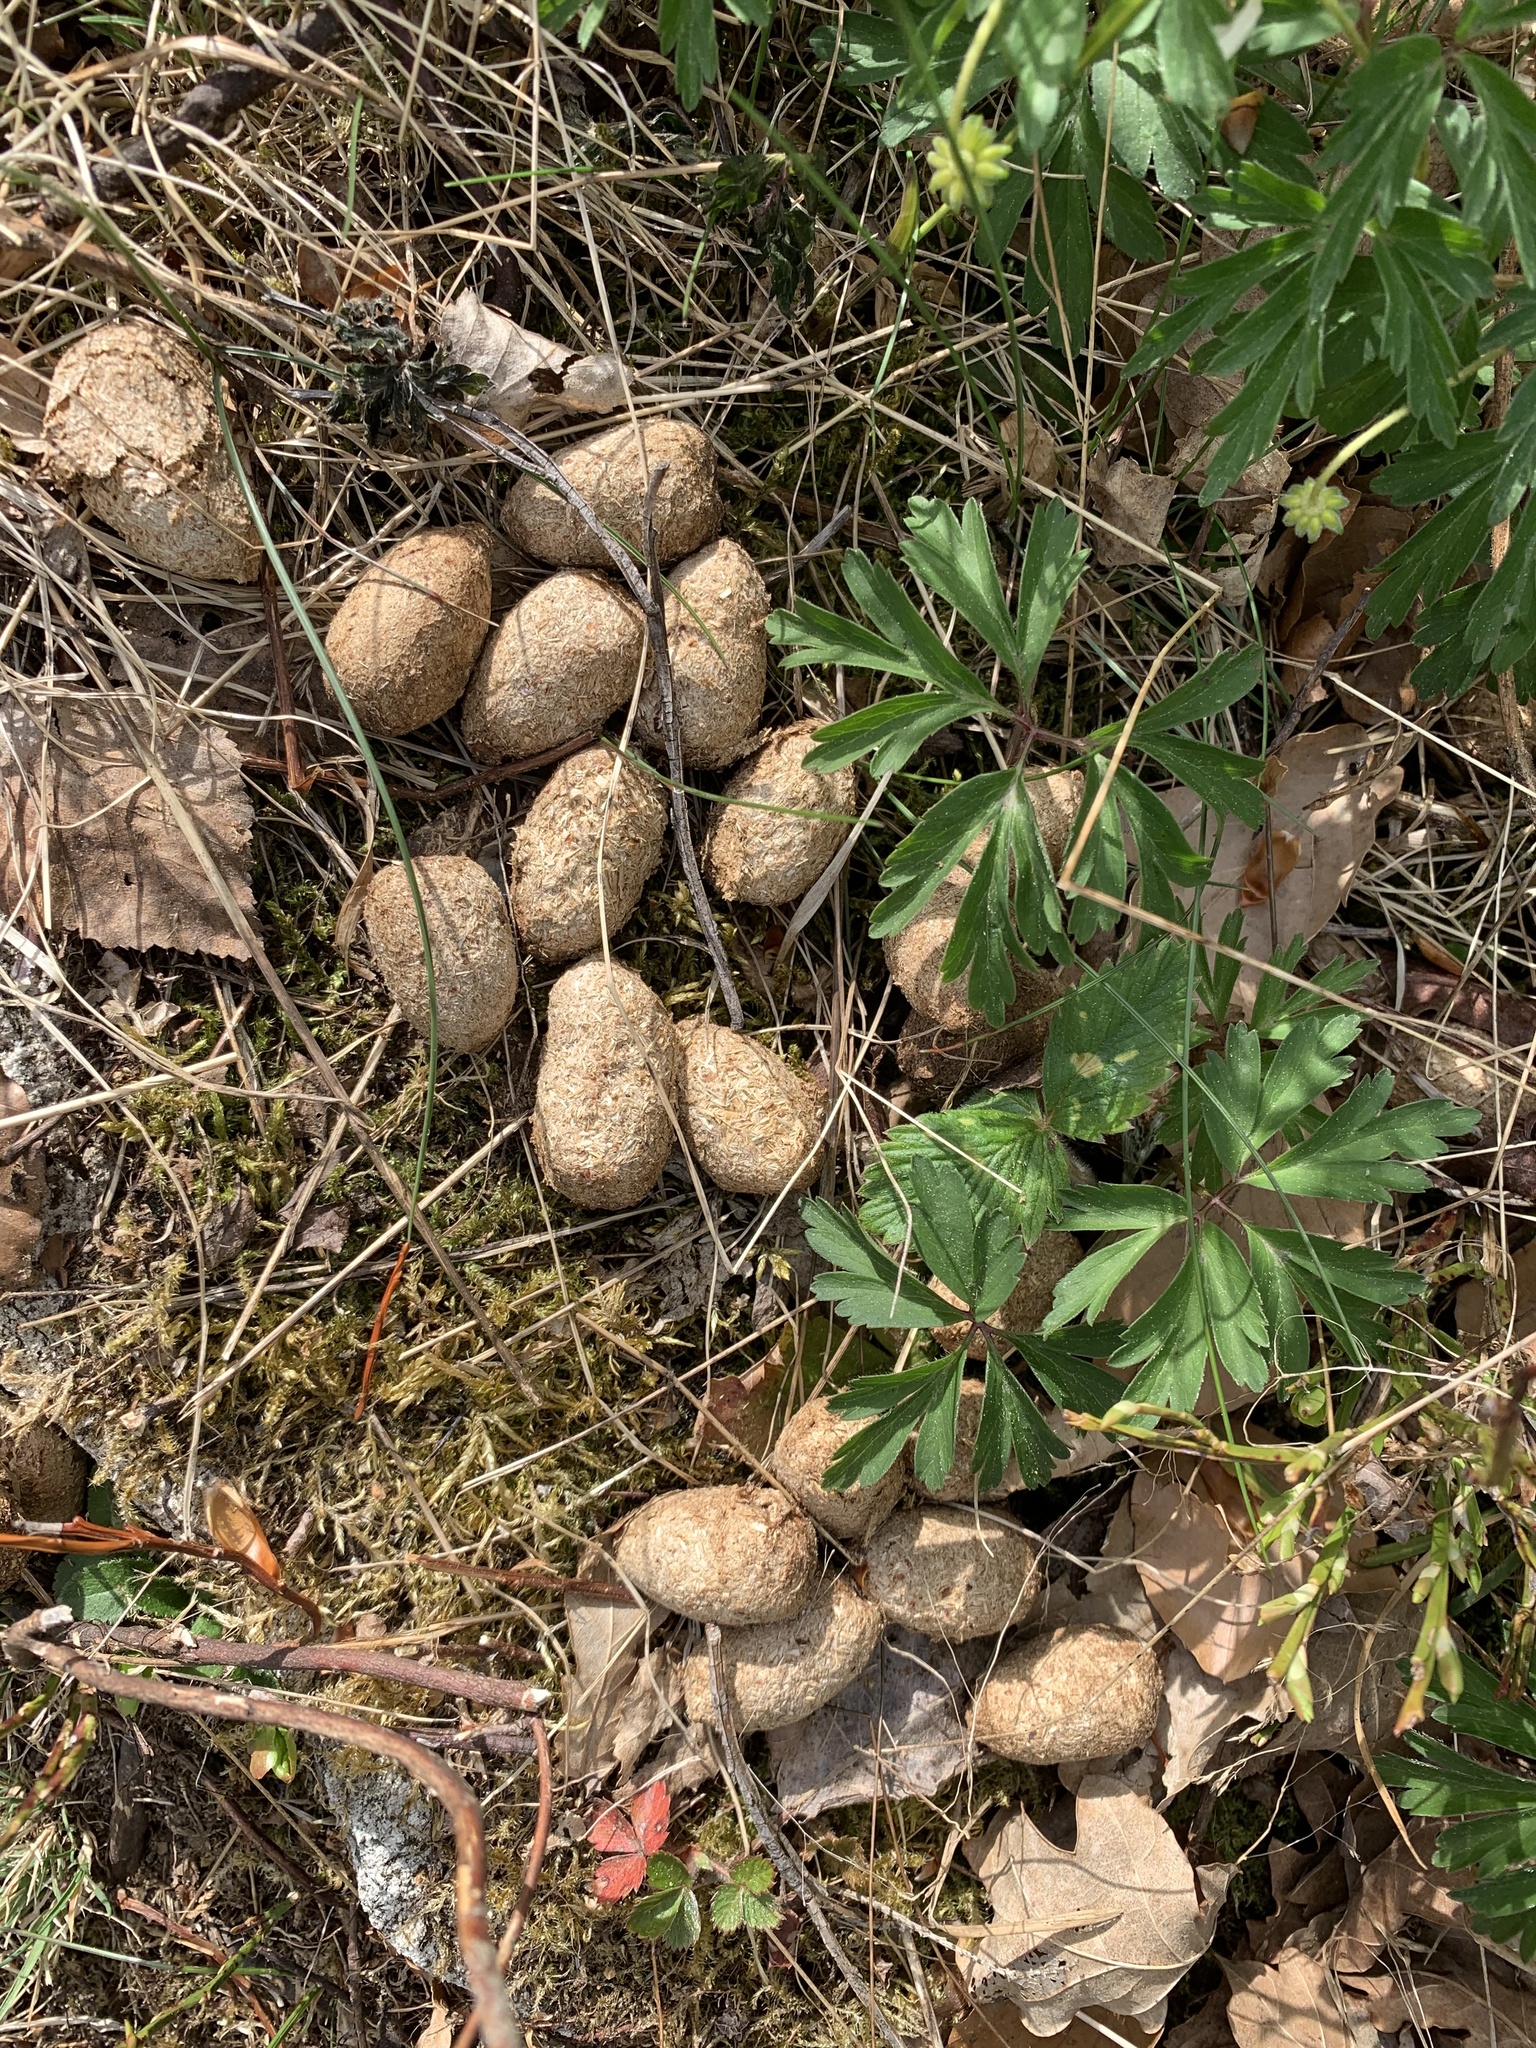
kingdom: Animalia
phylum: Chordata
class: Mammalia
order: Artiodactyla
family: Cervidae
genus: Alces
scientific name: Alces alces
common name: Moose
